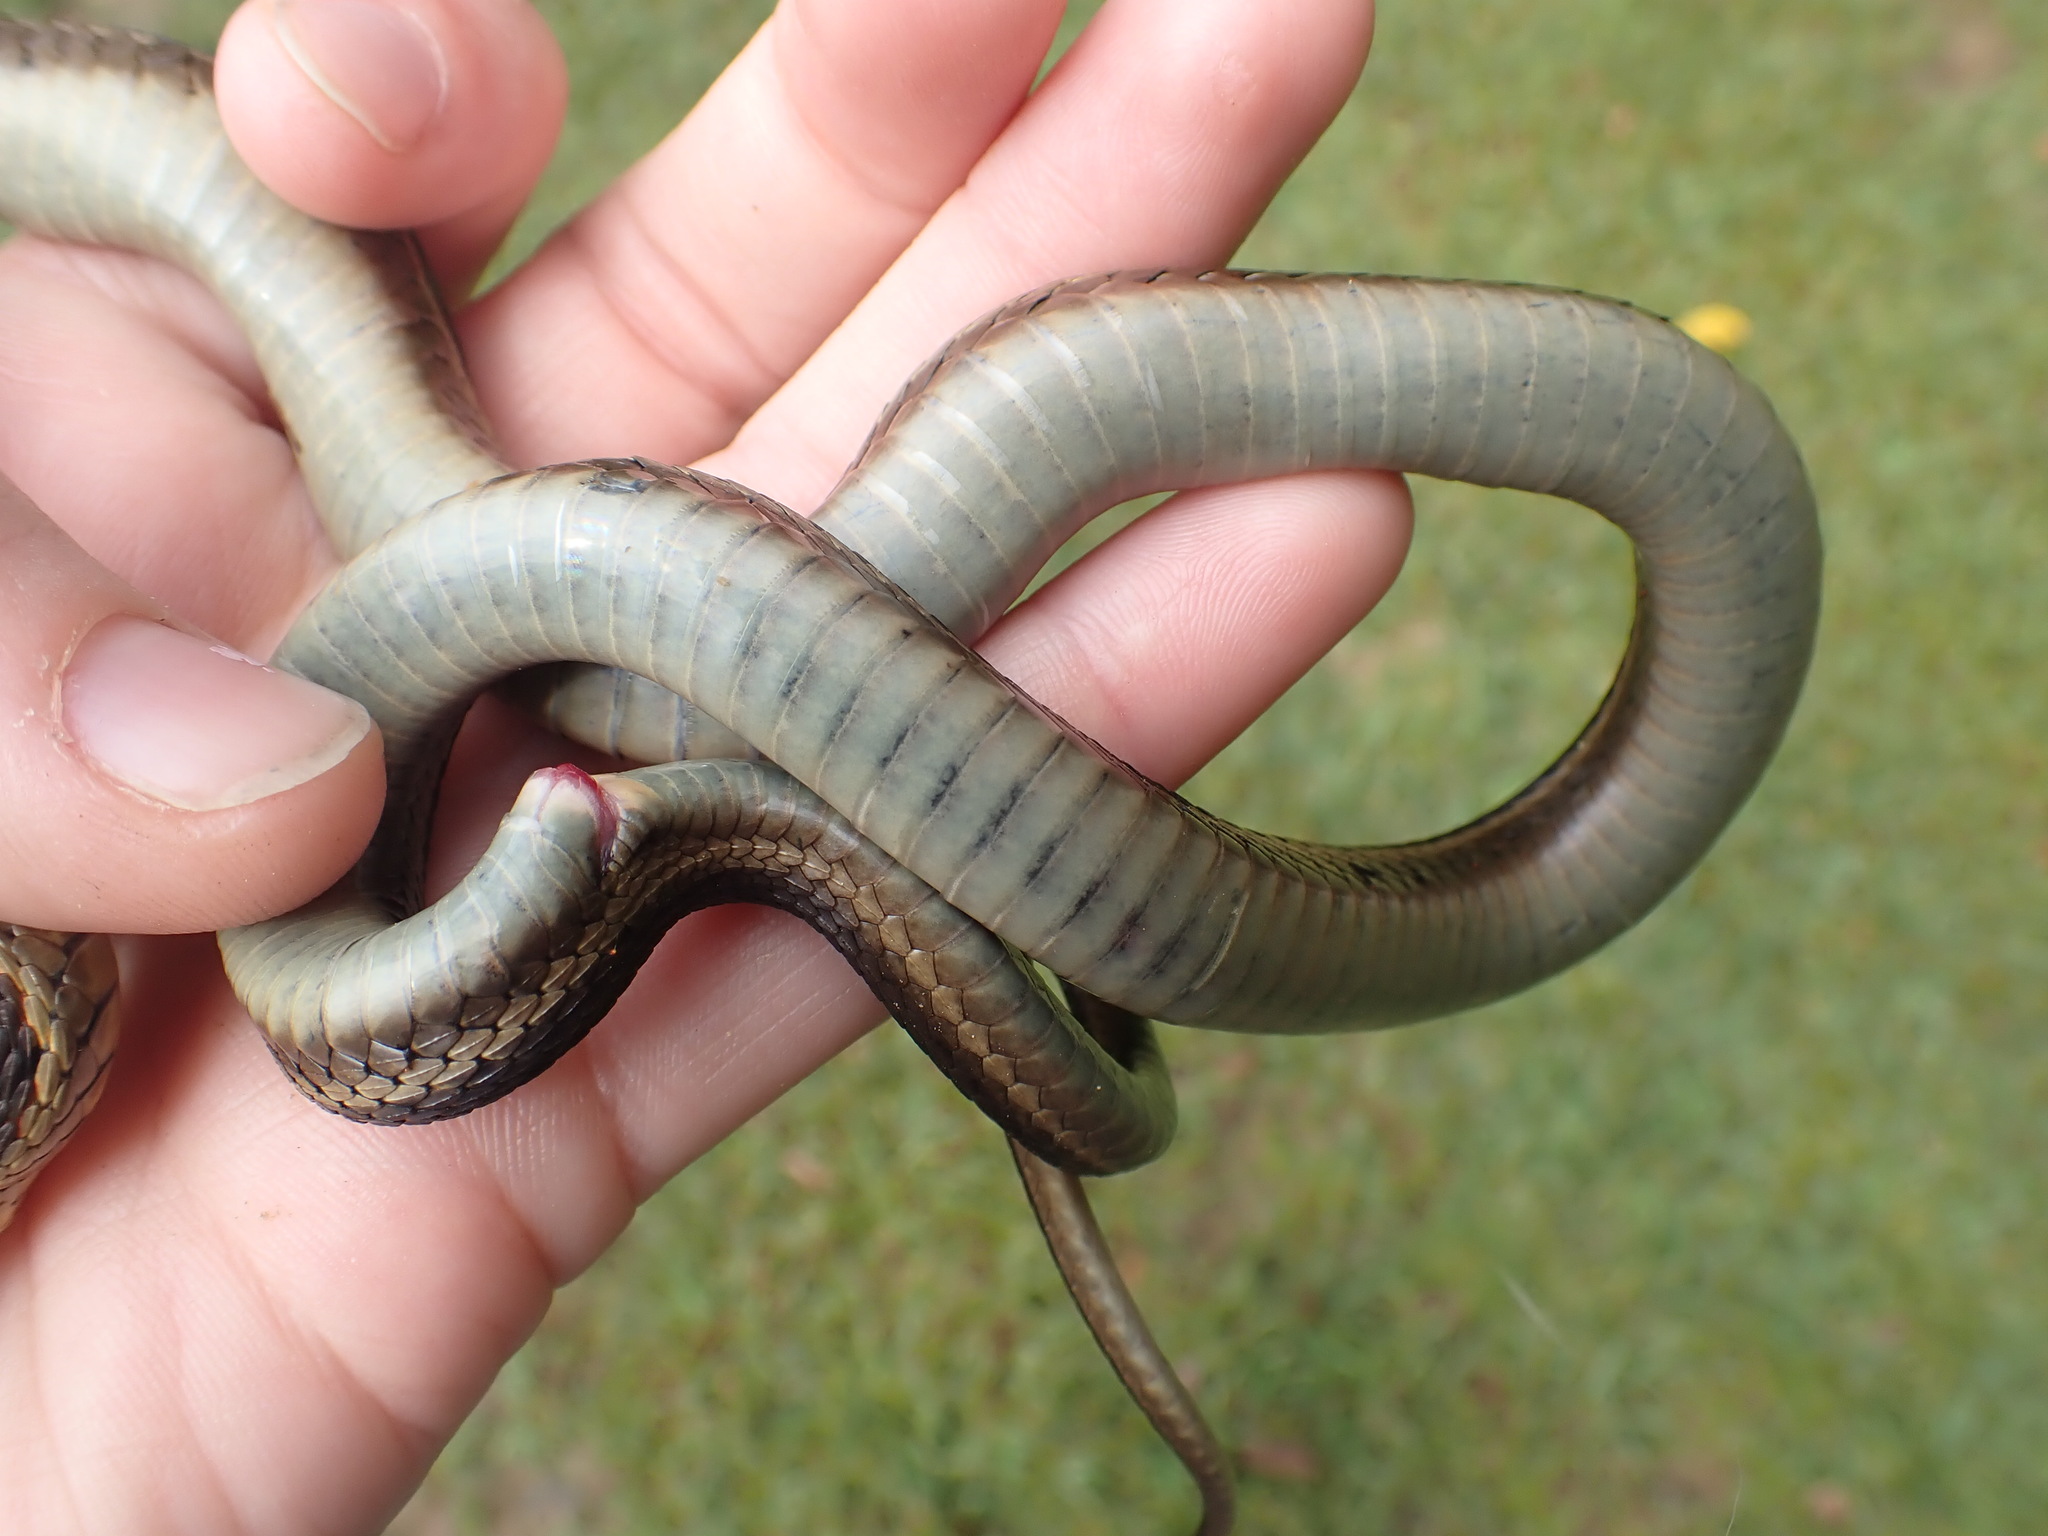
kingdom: Animalia
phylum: Chordata
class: Squamata
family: Colubridae
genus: Thamnophis
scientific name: Thamnophis sirtalis
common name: Common garter snake
